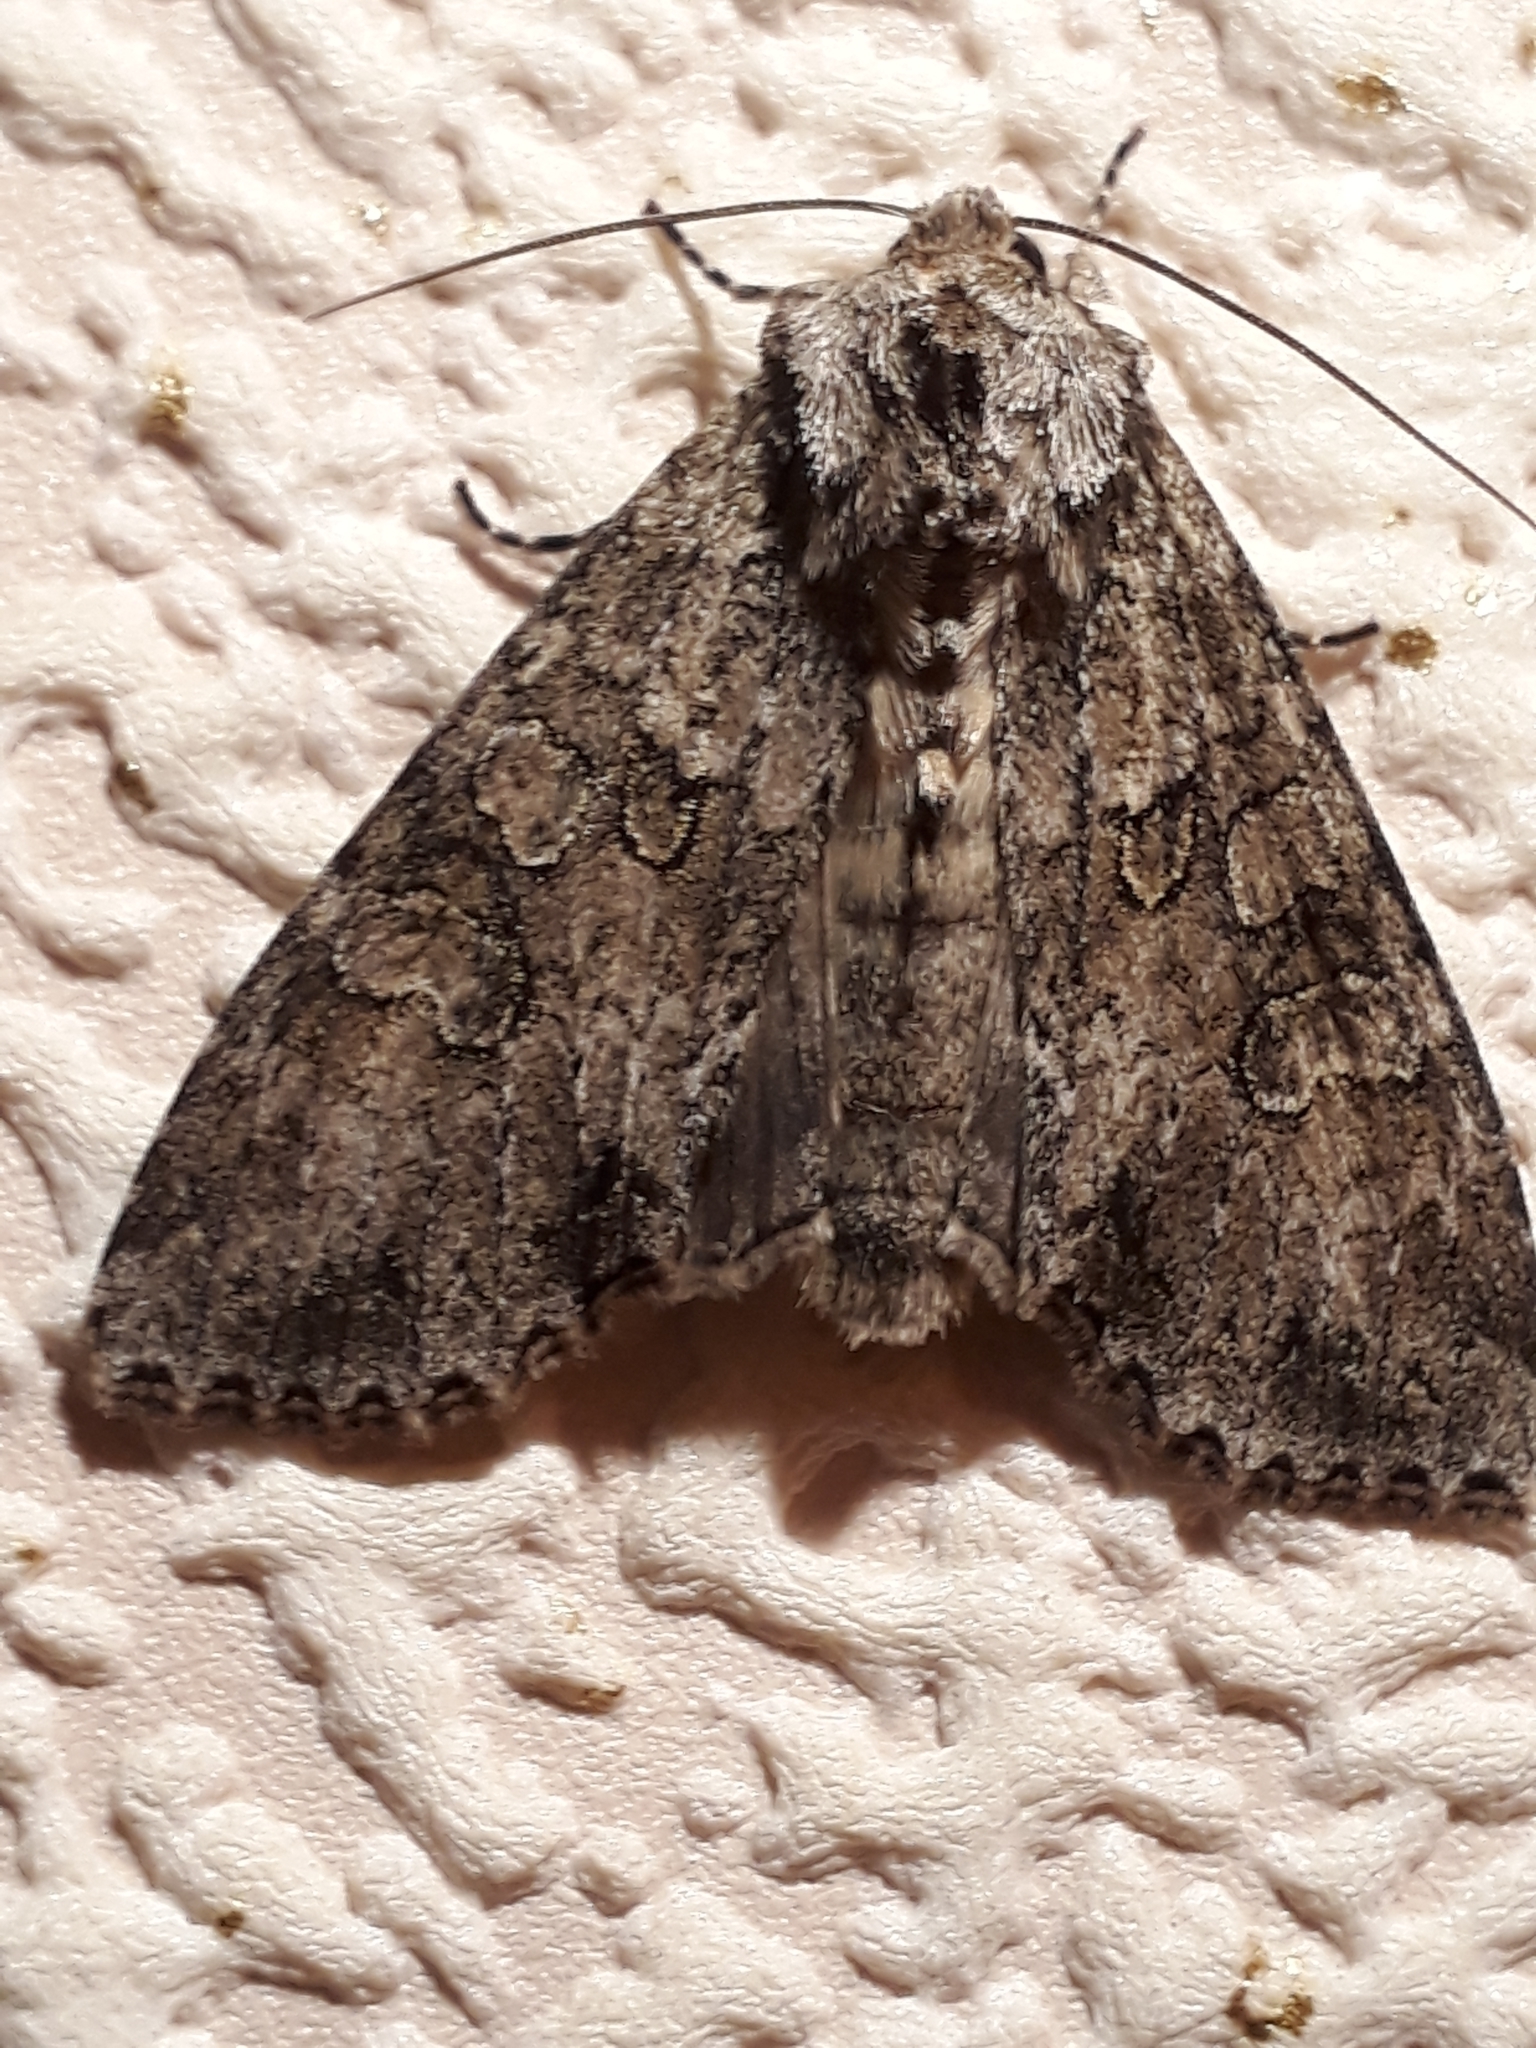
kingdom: Animalia
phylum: Arthropoda
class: Insecta
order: Lepidoptera
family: Noctuidae
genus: Polia
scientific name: Polia nebulosa
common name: Grey arches
